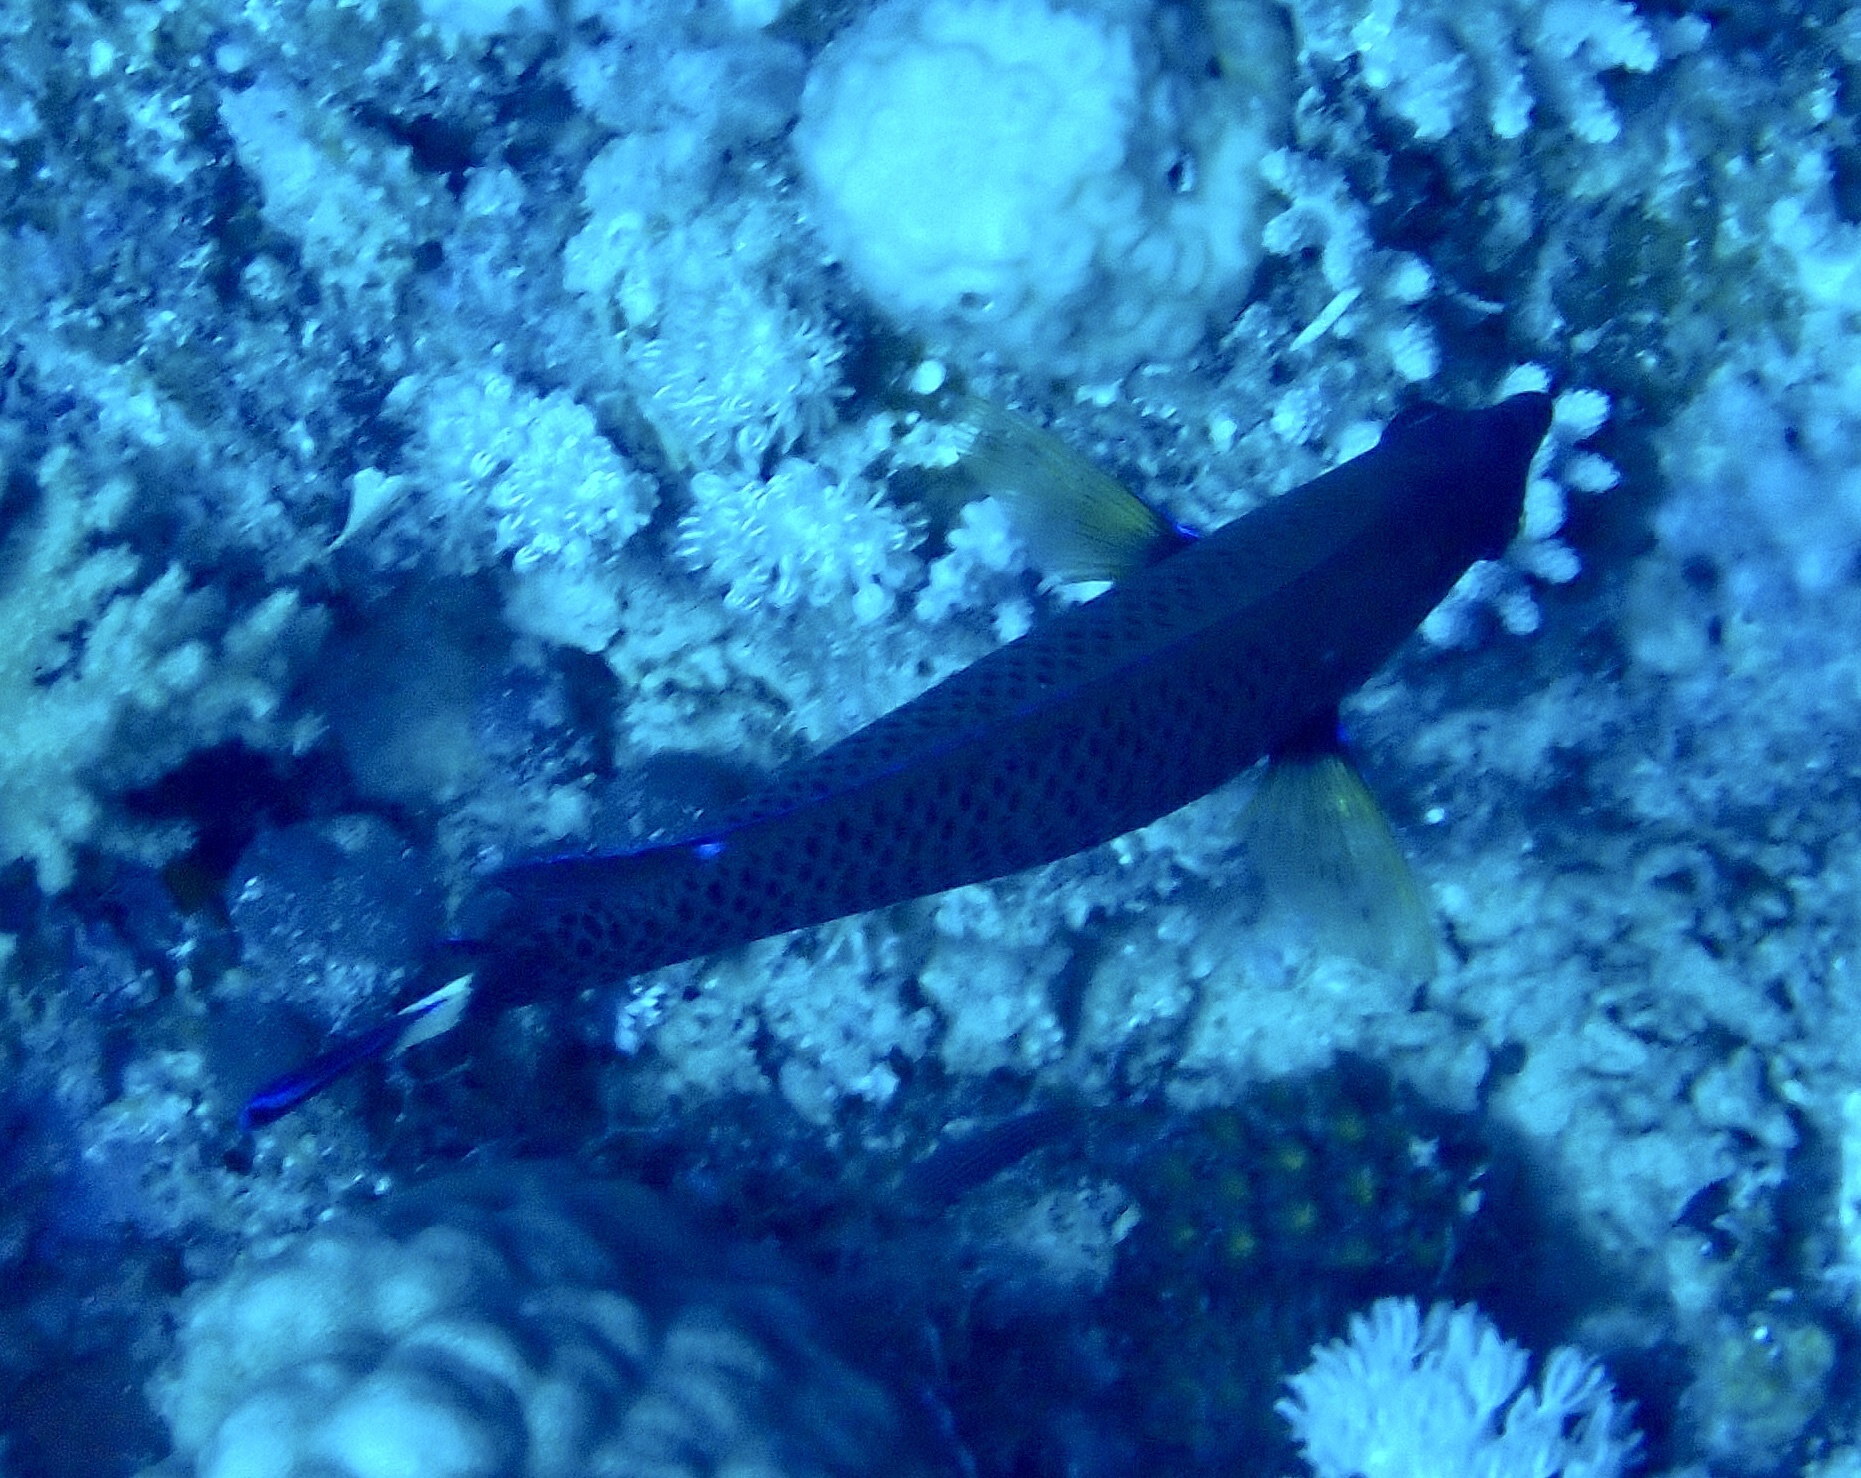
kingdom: Animalia
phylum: Chordata
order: Perciformes
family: Labridae
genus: Pseudodax
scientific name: Pseudodax moluccanus
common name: Chiseltooth wrasse
